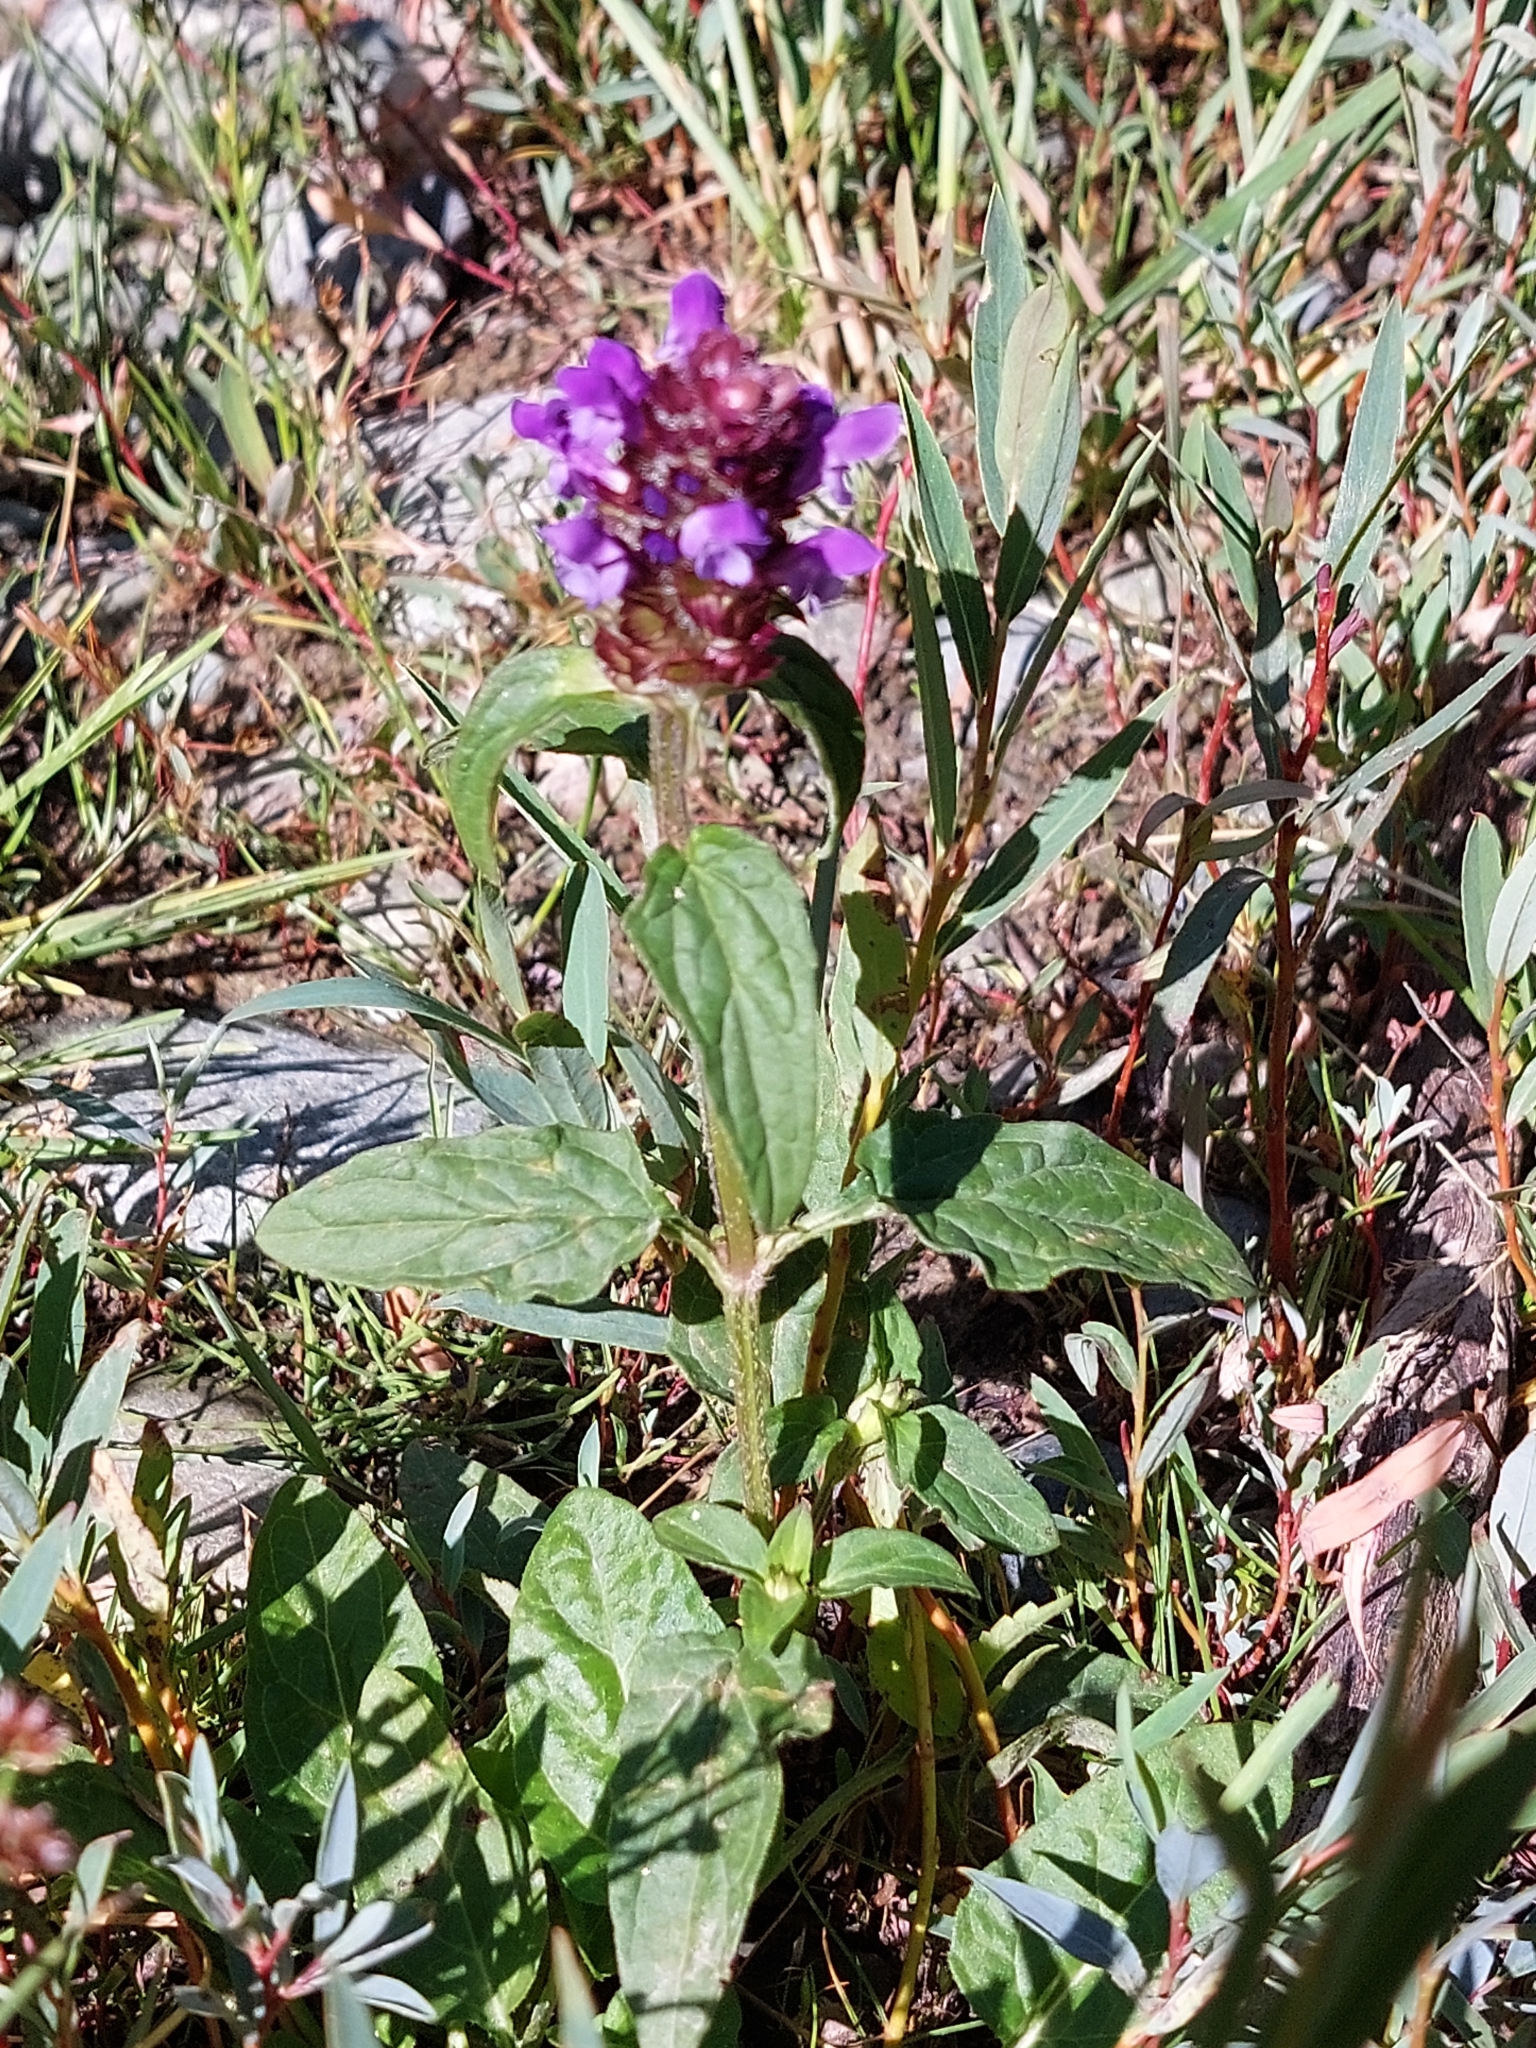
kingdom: Plantae
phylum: Tracheophyta
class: Magnoliopsida
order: Lamiales
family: Lamiaceae
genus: Prunella
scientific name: Prunella vulgaris
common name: Heal-all
